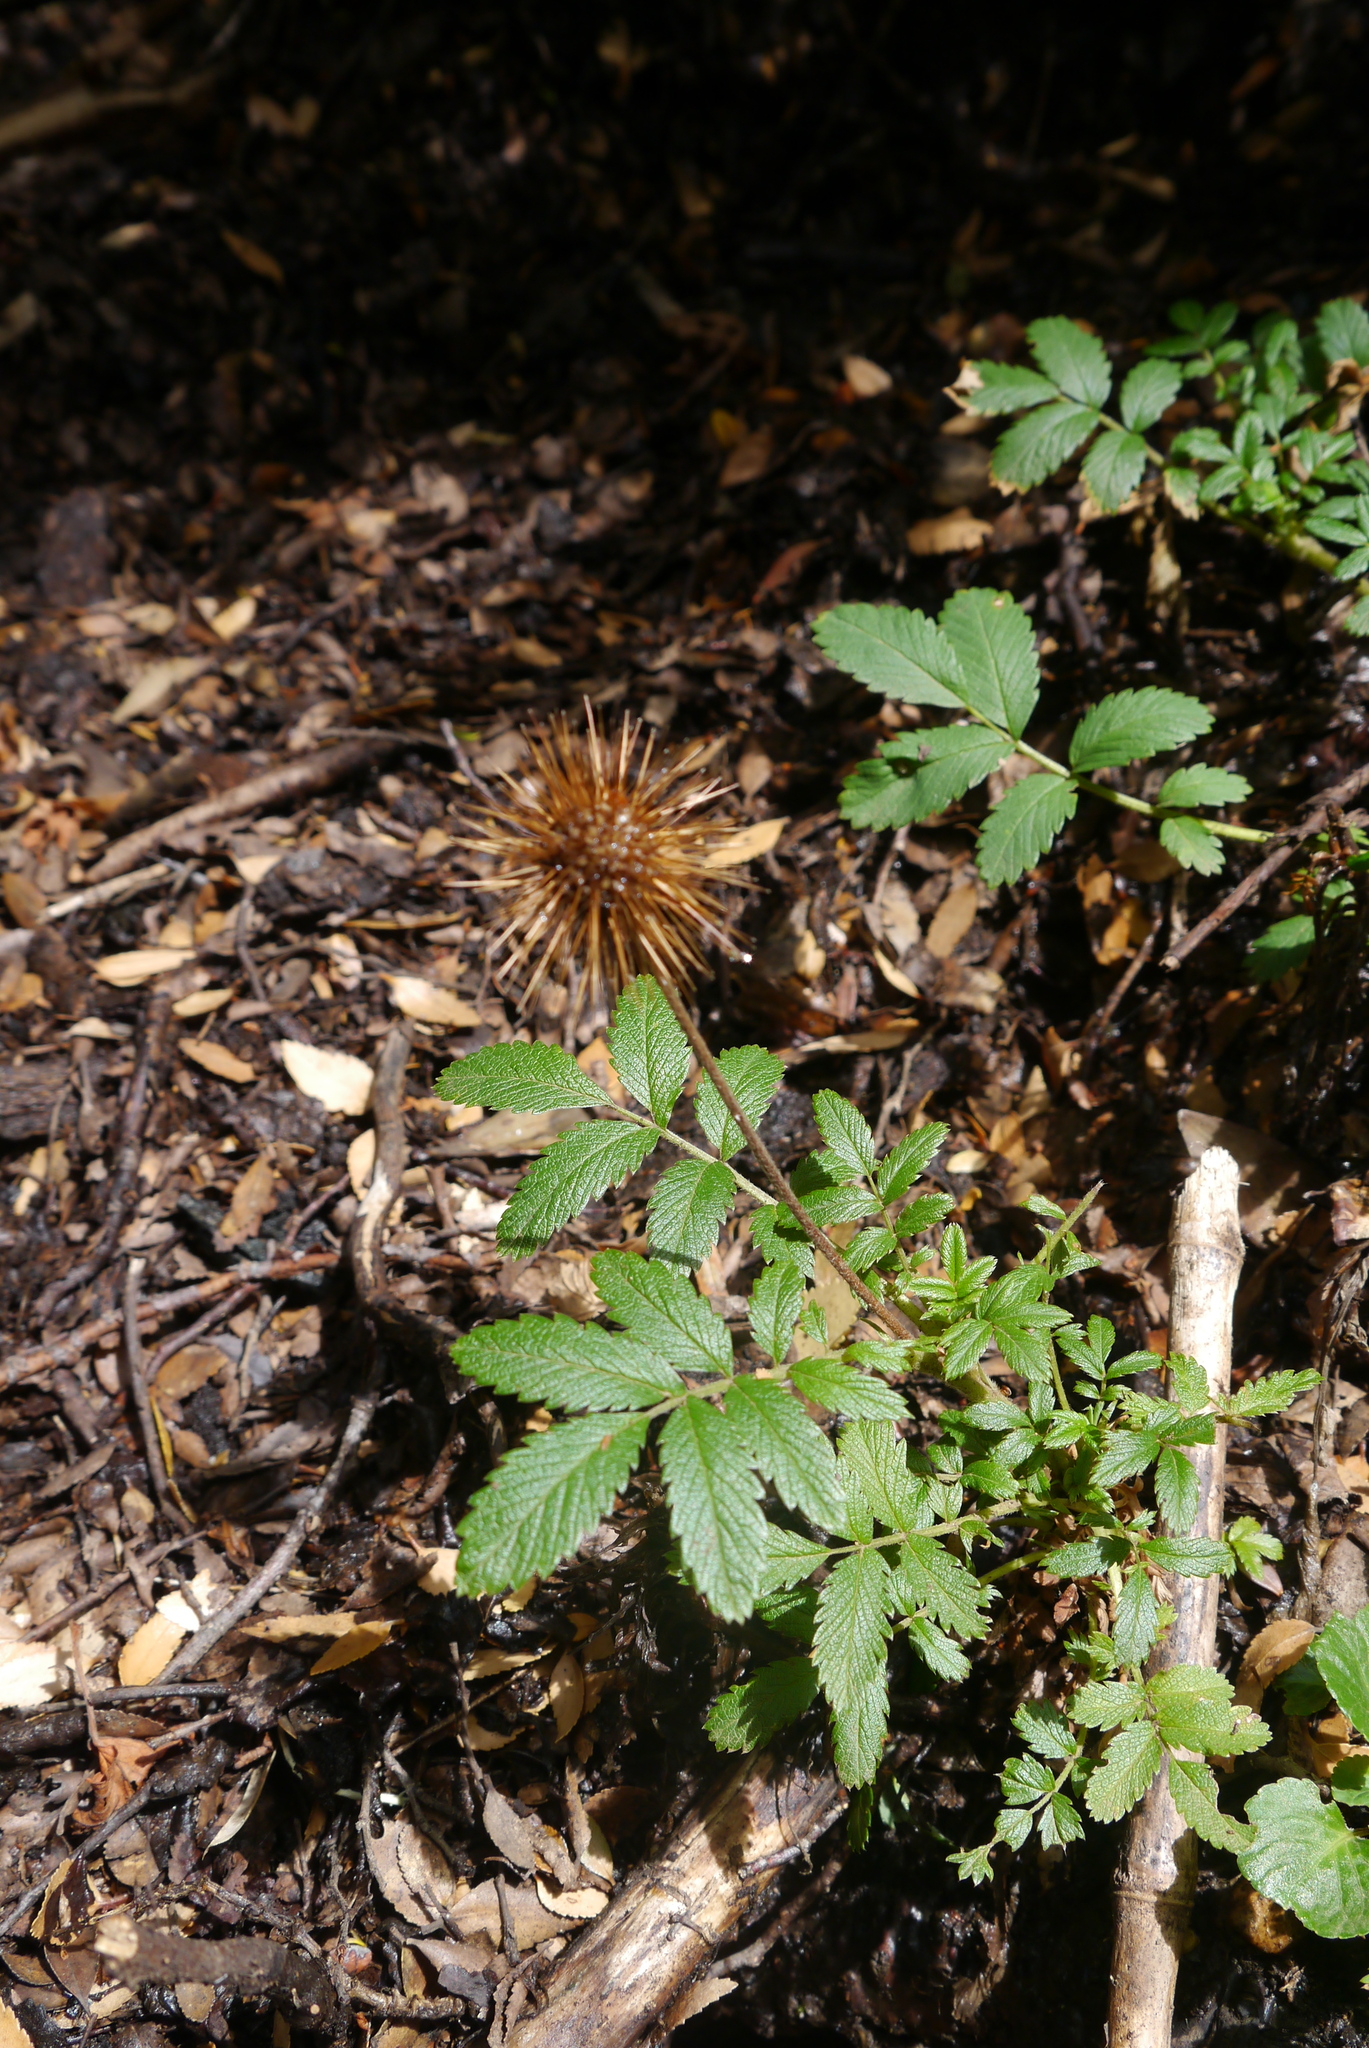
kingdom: Plantae
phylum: Tracheophyta
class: Magnoliopsida
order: Rosales
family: Rosaceae
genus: Acaena
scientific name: Acaena ovalifolia
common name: Two-spined acaena
